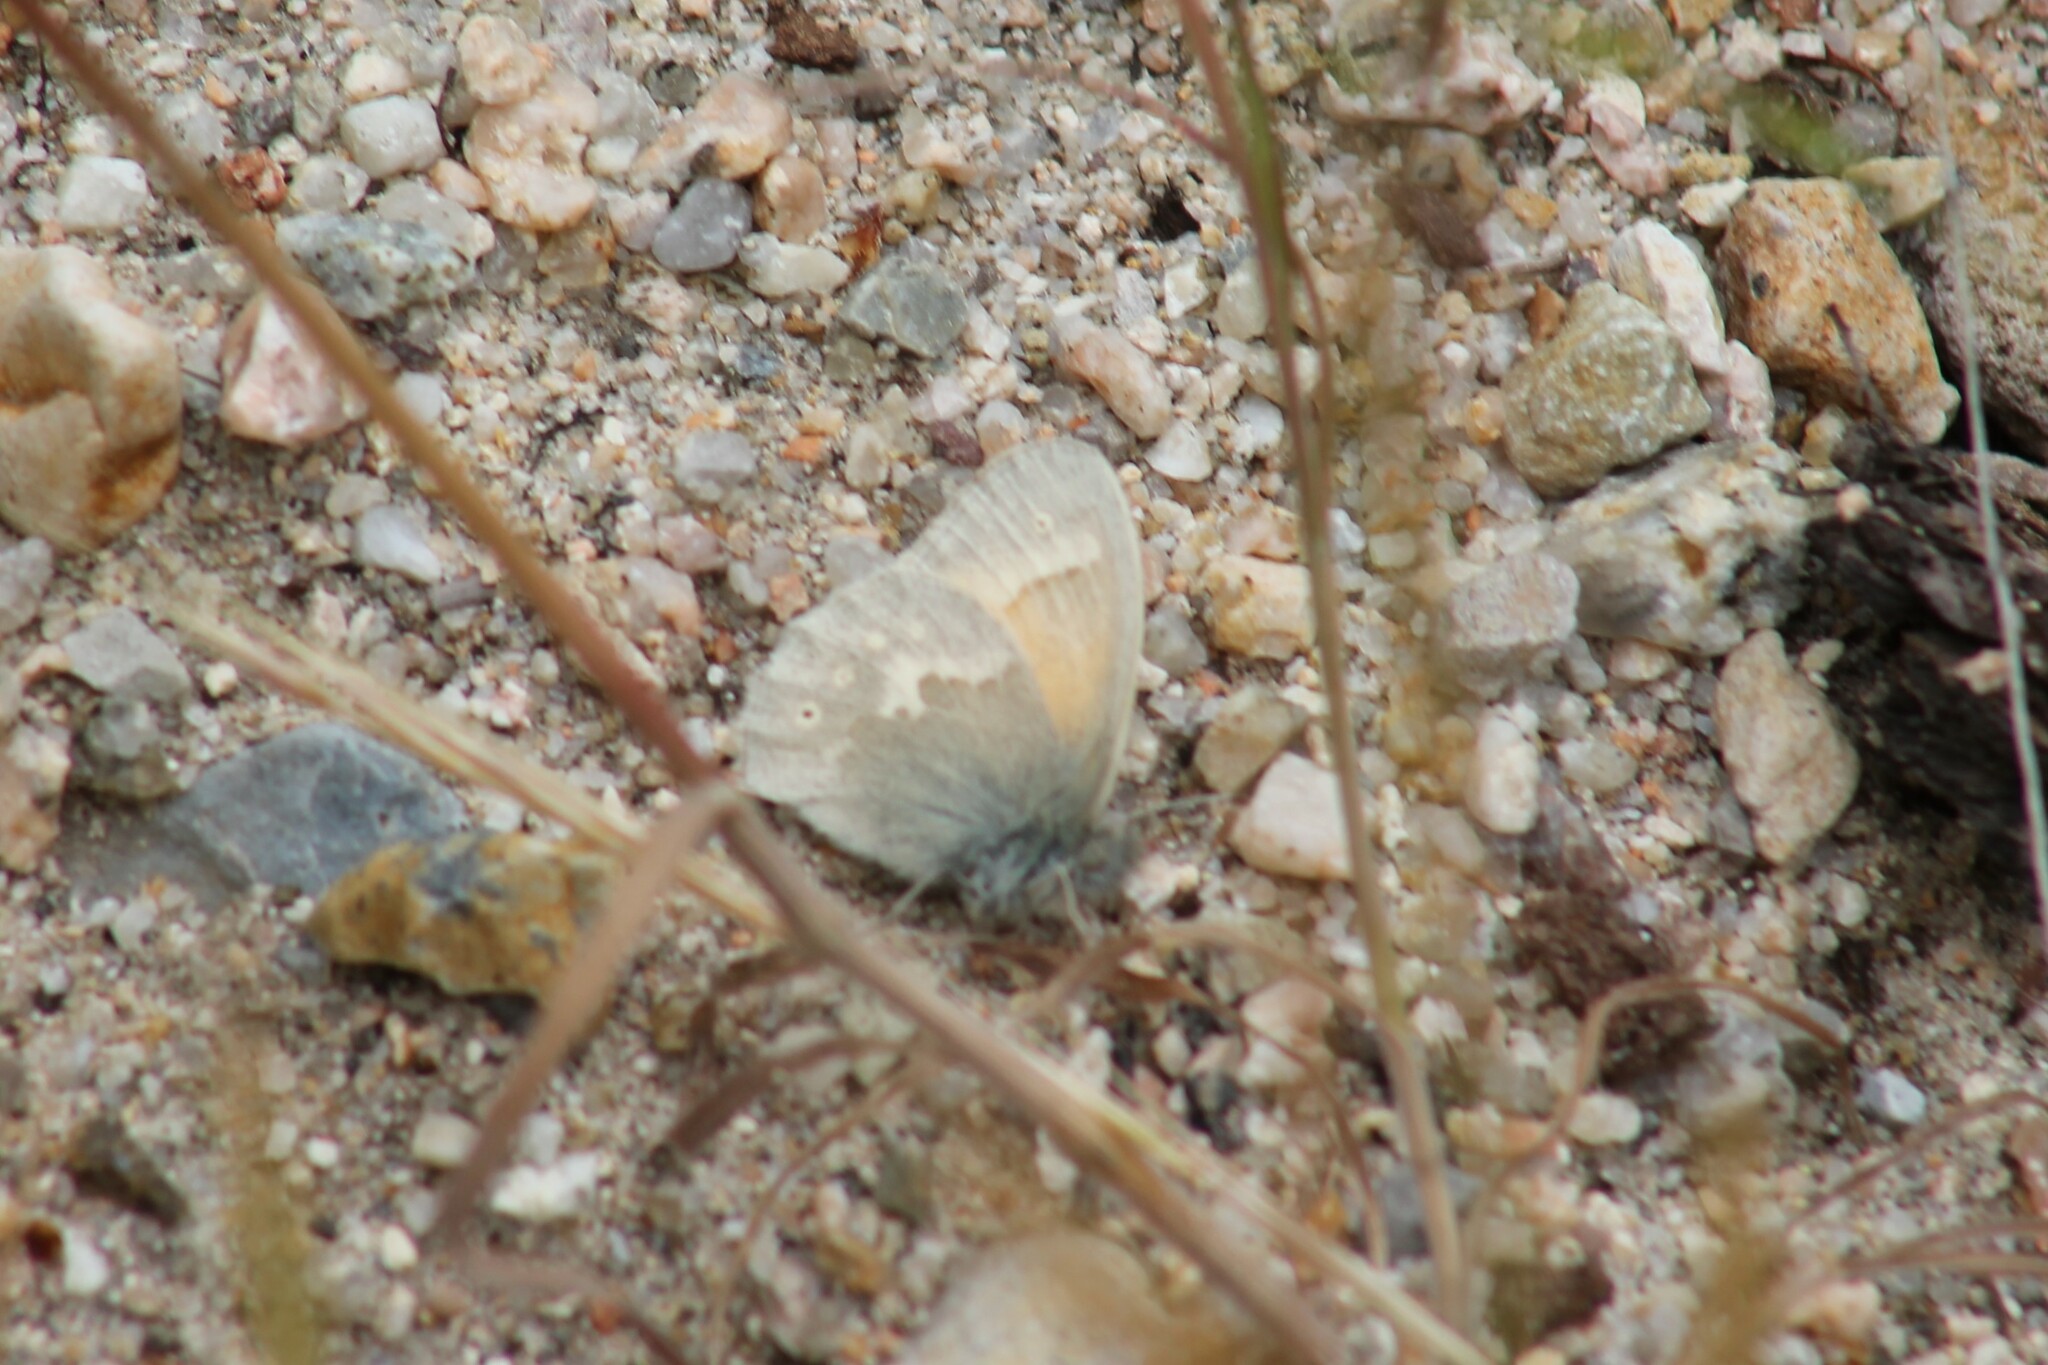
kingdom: Animalia
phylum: Arthropoda
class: Insecta
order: Lepidoptera
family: Nymphalidae
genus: Coenonympha
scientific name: Coenonympha california
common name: Common ringlet
